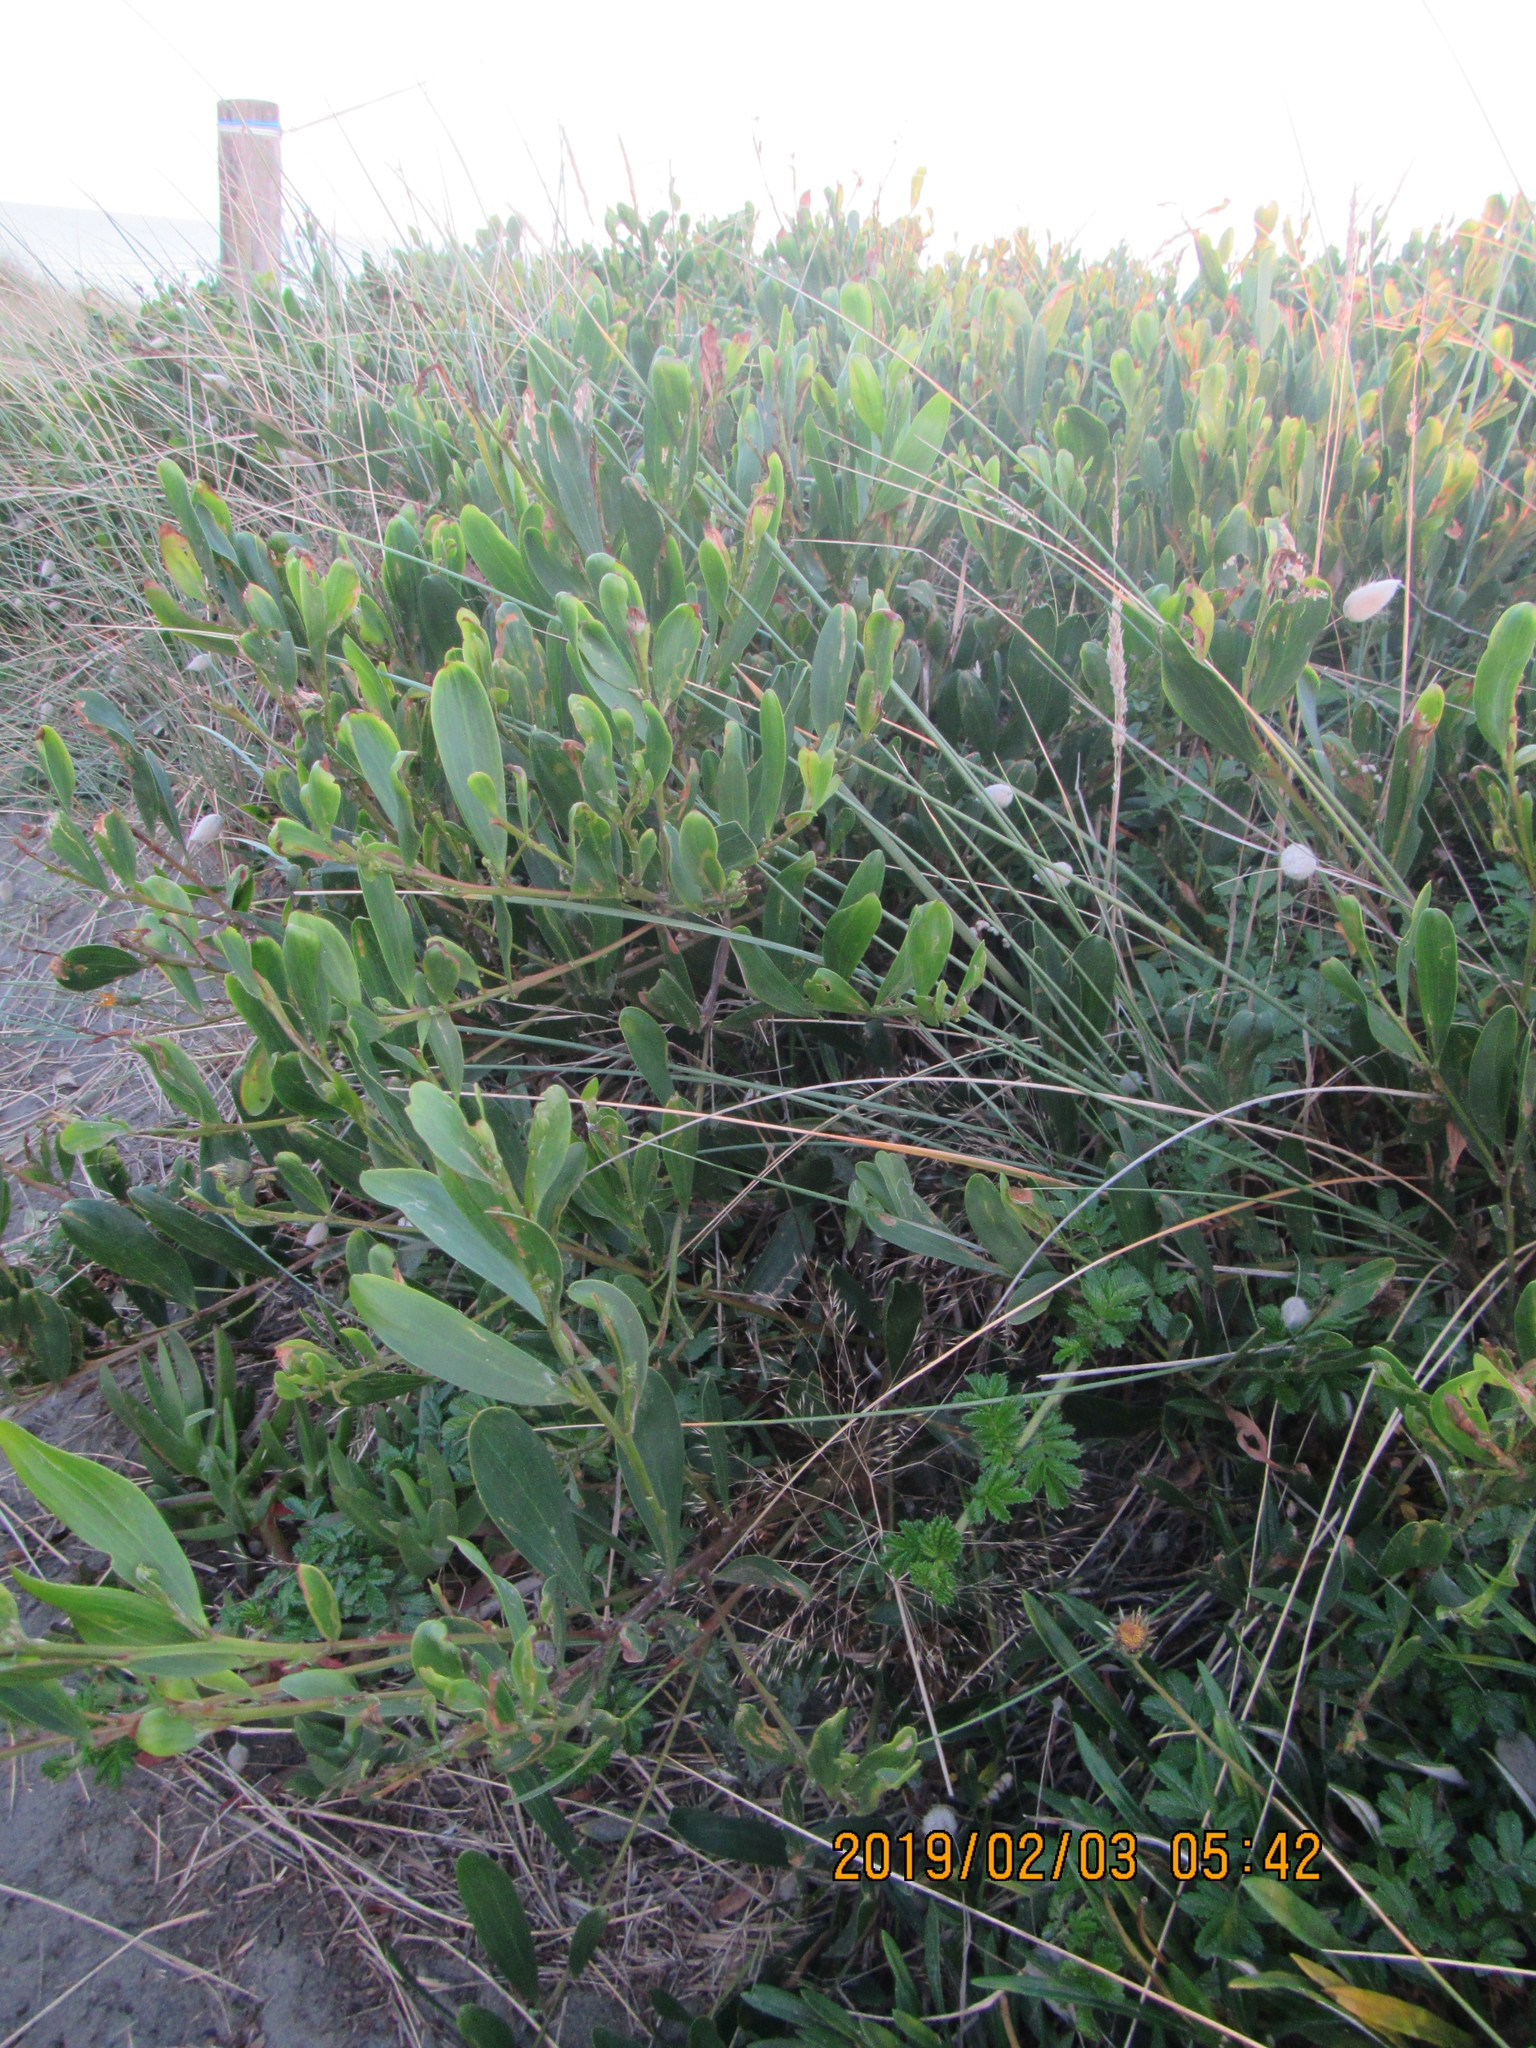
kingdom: Plantae
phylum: Tracheophyta
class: Magnoliopsida
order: Fabales
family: Fabaceae
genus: Acacia
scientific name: Acacia longifolia
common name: Sydney golden wattle
